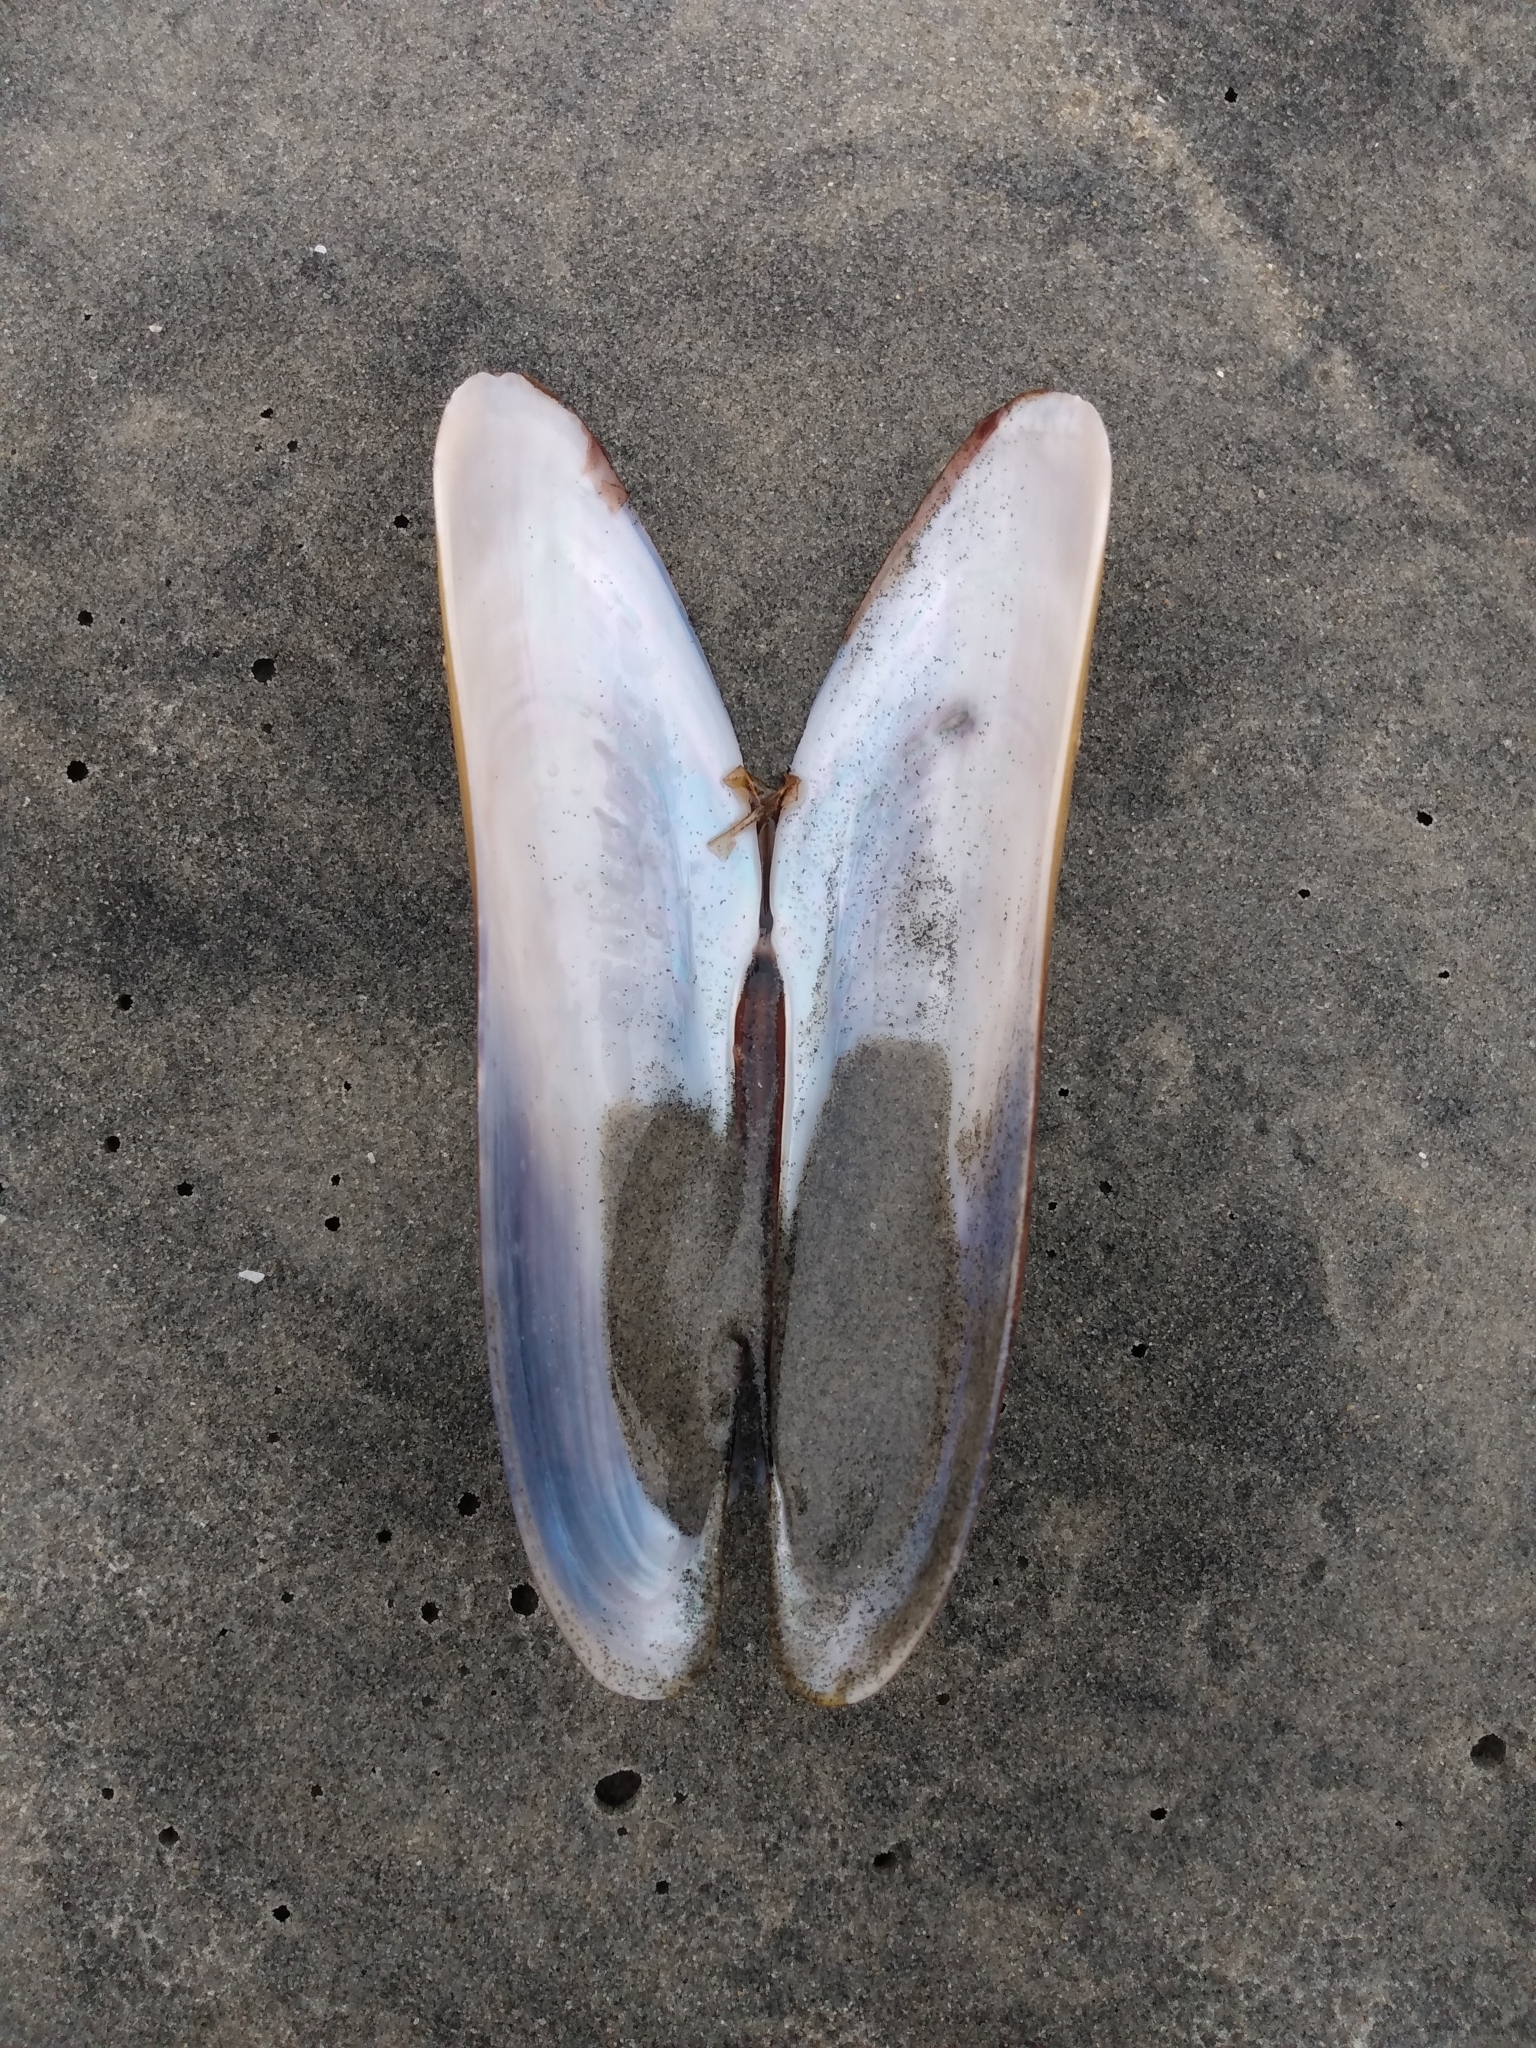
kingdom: Animalia
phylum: Mollusca
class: Bivalvia
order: Mytilida
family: Mytilidae
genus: Modiolatus
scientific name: Modiolatus neglectus
